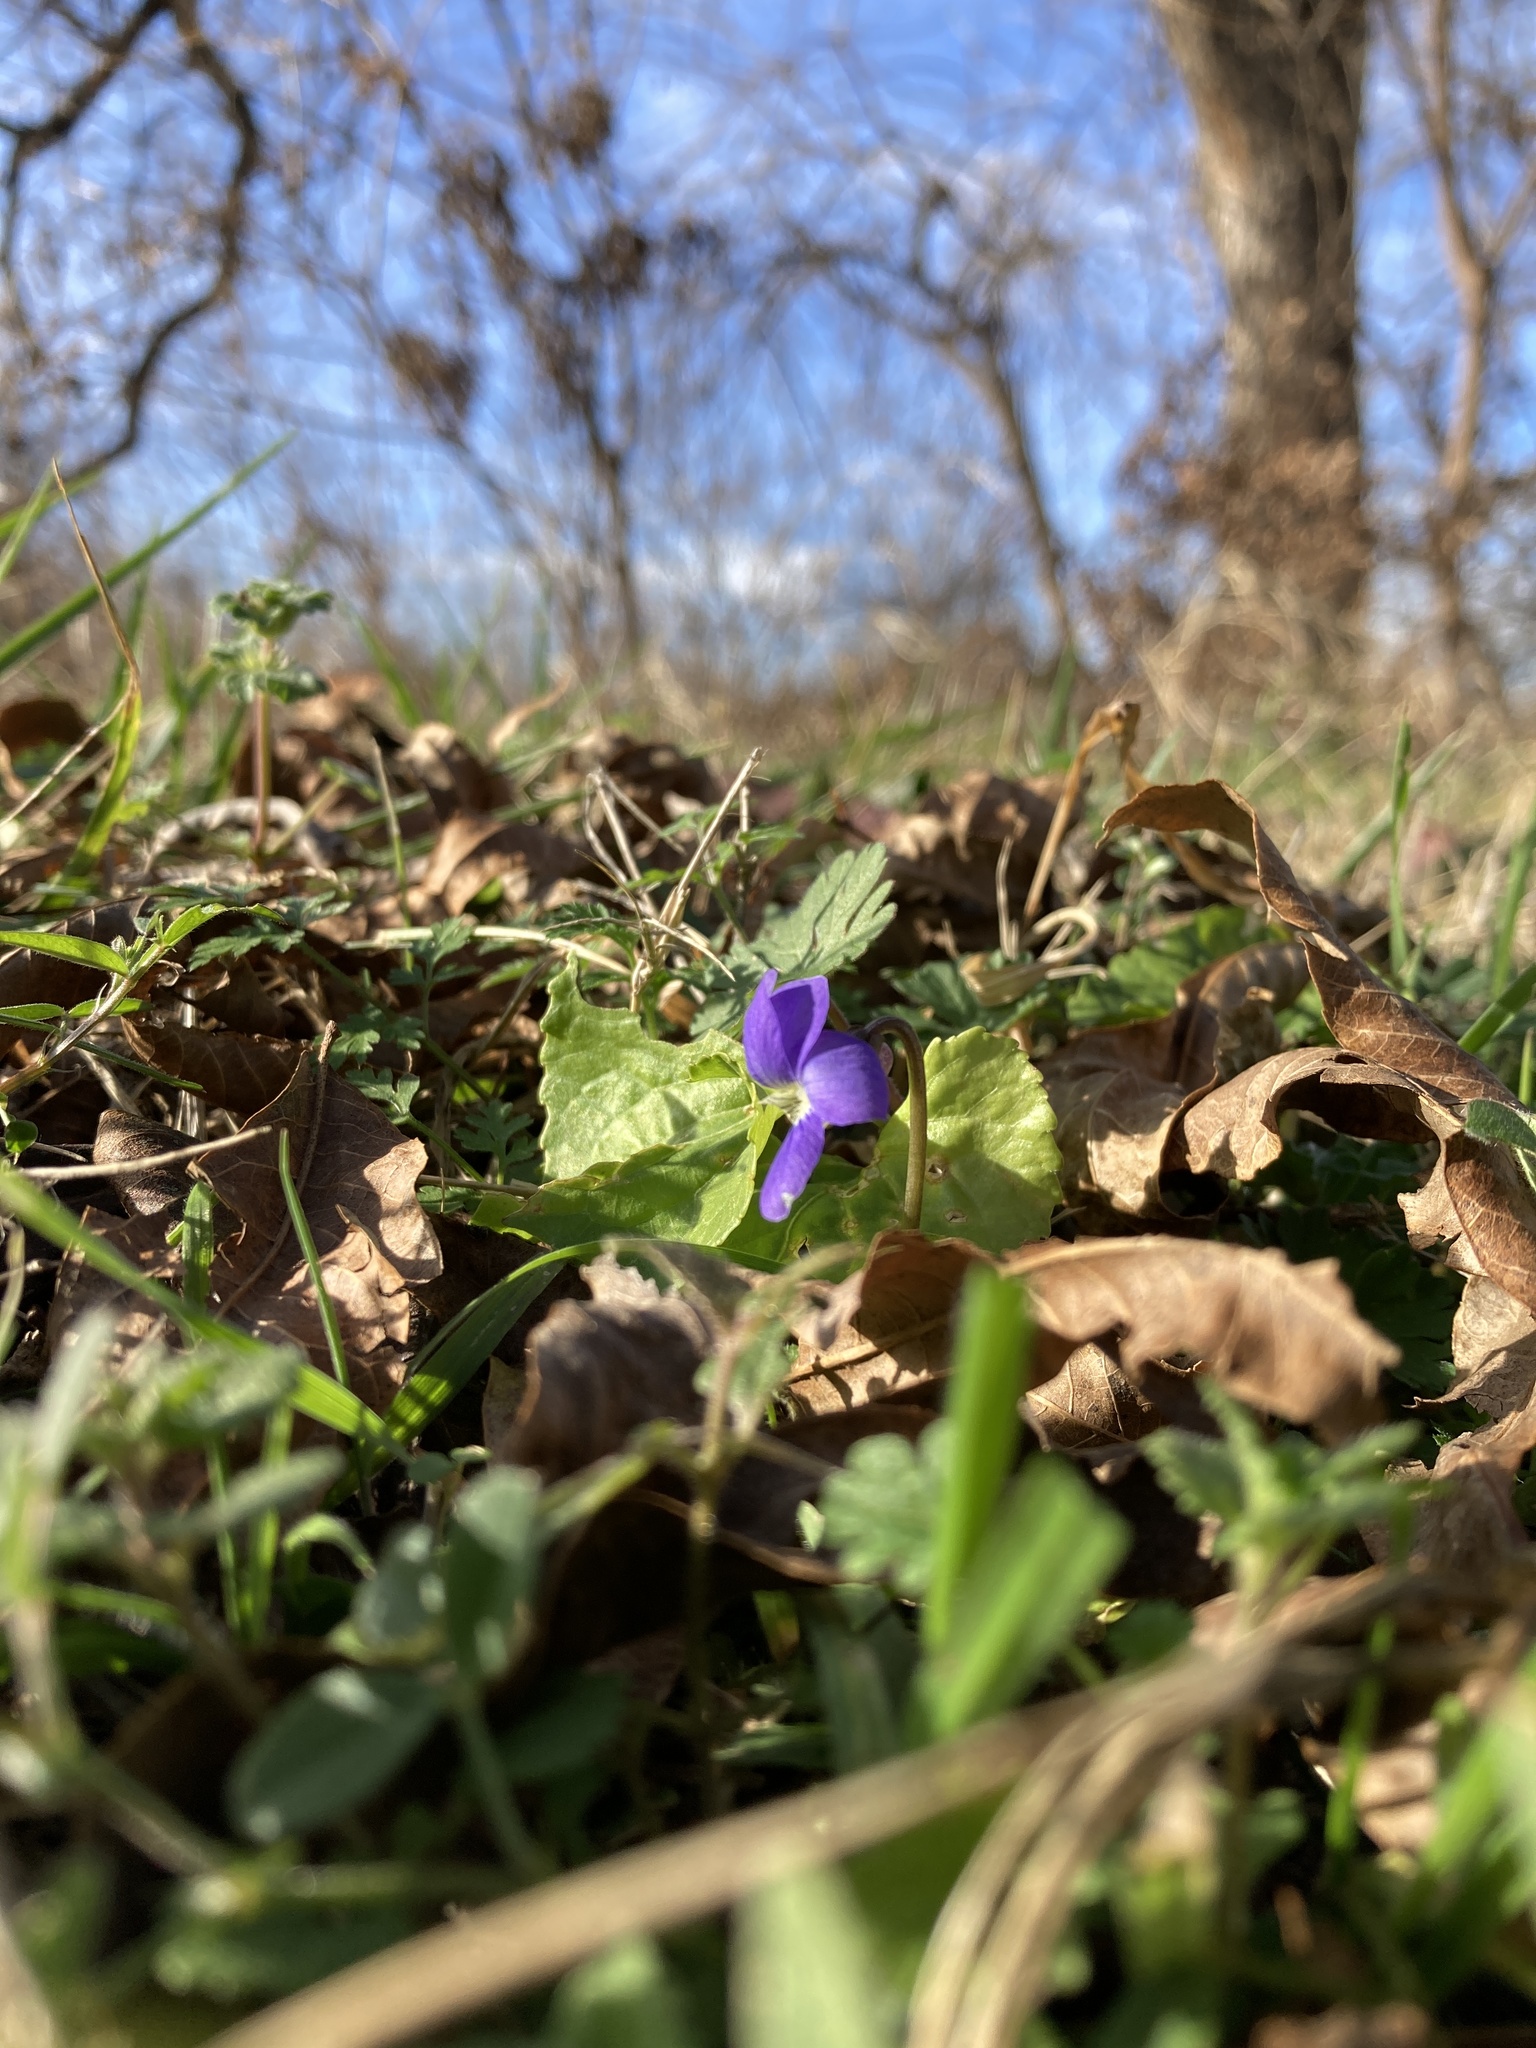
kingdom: Plantae
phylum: Tracheophyta
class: Magnoliopsida
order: Malpighiales
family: Violaceae
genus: Viola
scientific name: Viola sororia
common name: Dooryard violet
